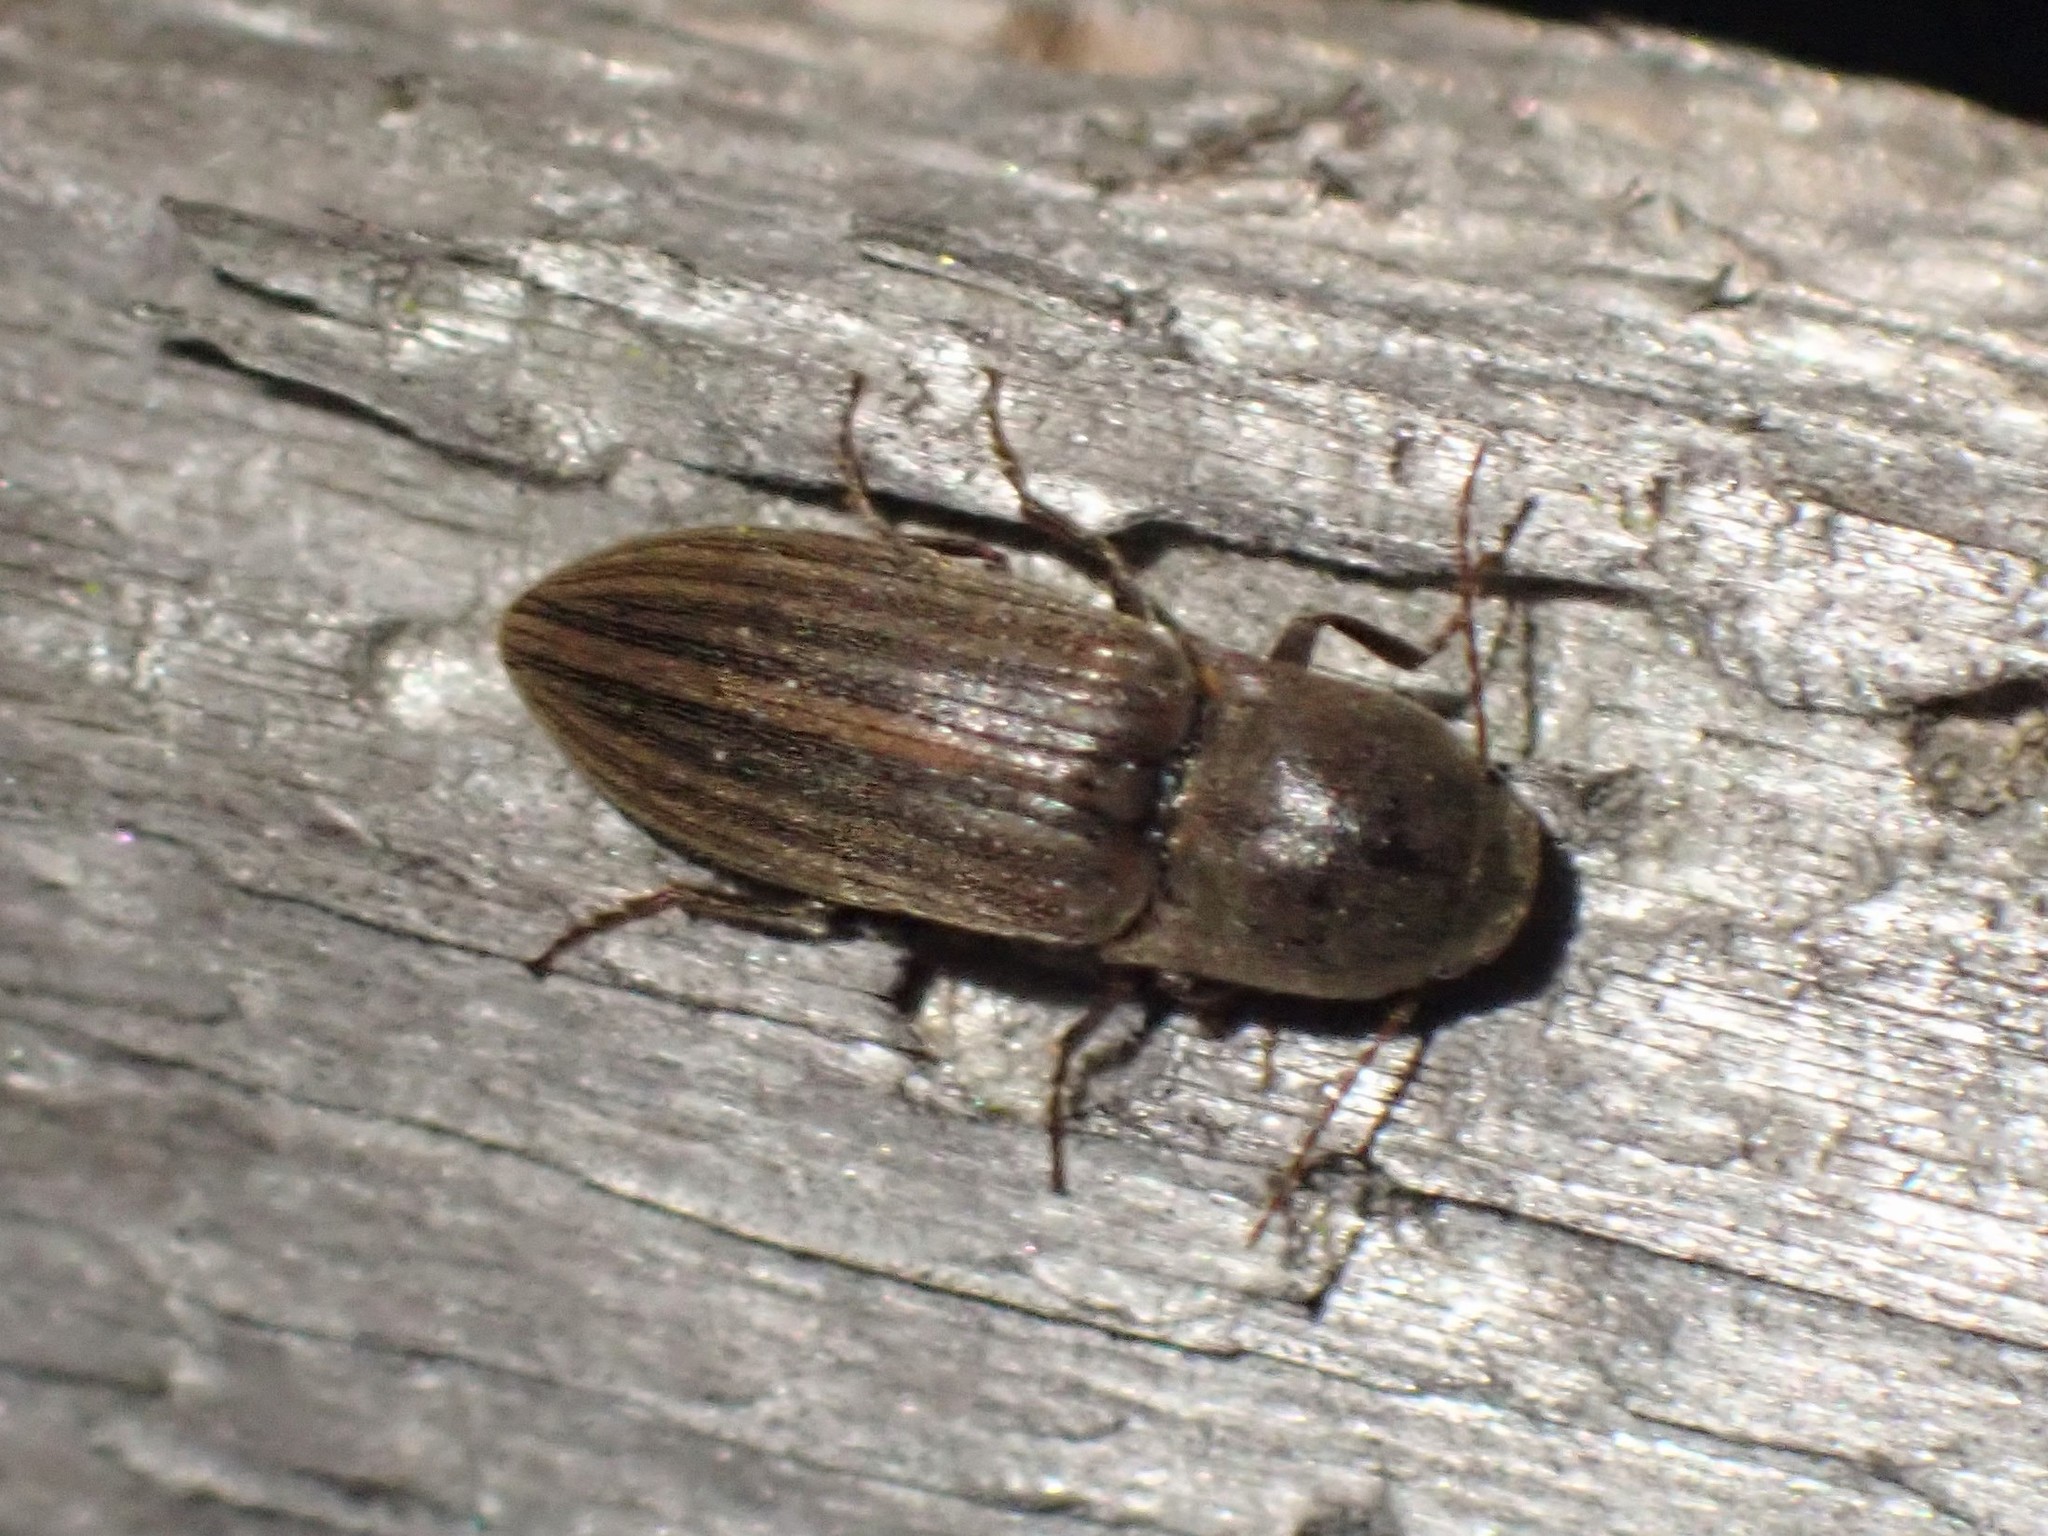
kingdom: Animalia
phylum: Arthropoda
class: Insecta
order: Coleoptera
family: Elateridae
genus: Agriotes
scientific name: Agriotes lineatus
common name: Lined click beetle
